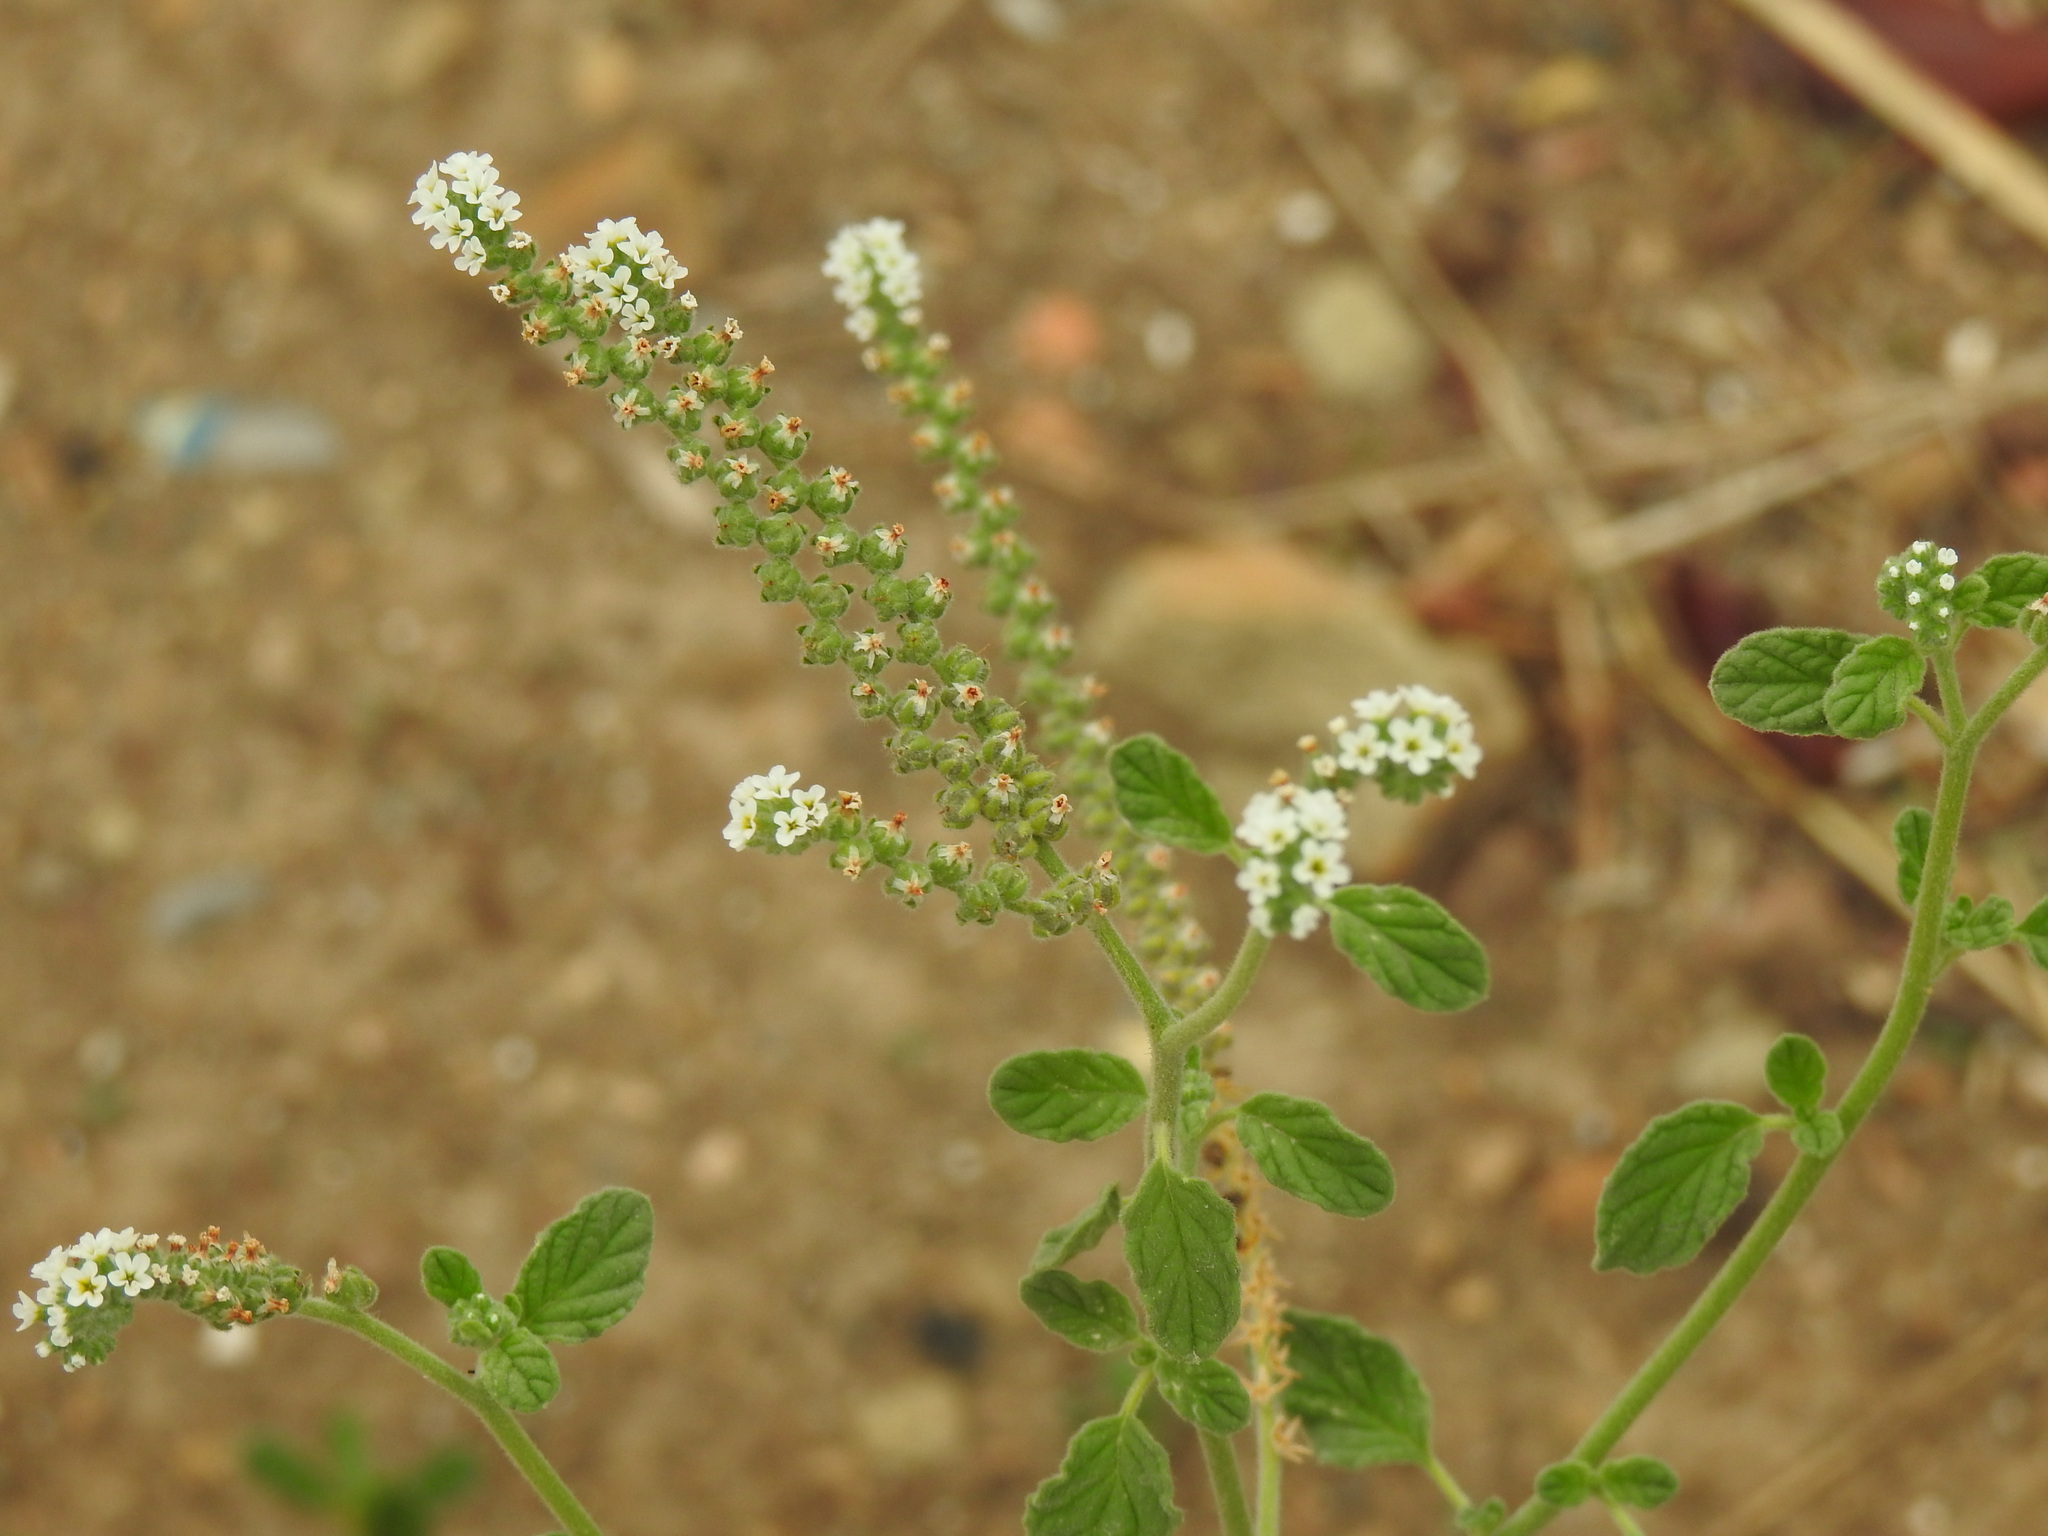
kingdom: Plantae
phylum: Tracheophyta
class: Magnoliopsida
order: Boraginales
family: Heliotropiaceae
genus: Heliotropium
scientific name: Heliotropium europaeum
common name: European heliotrope
